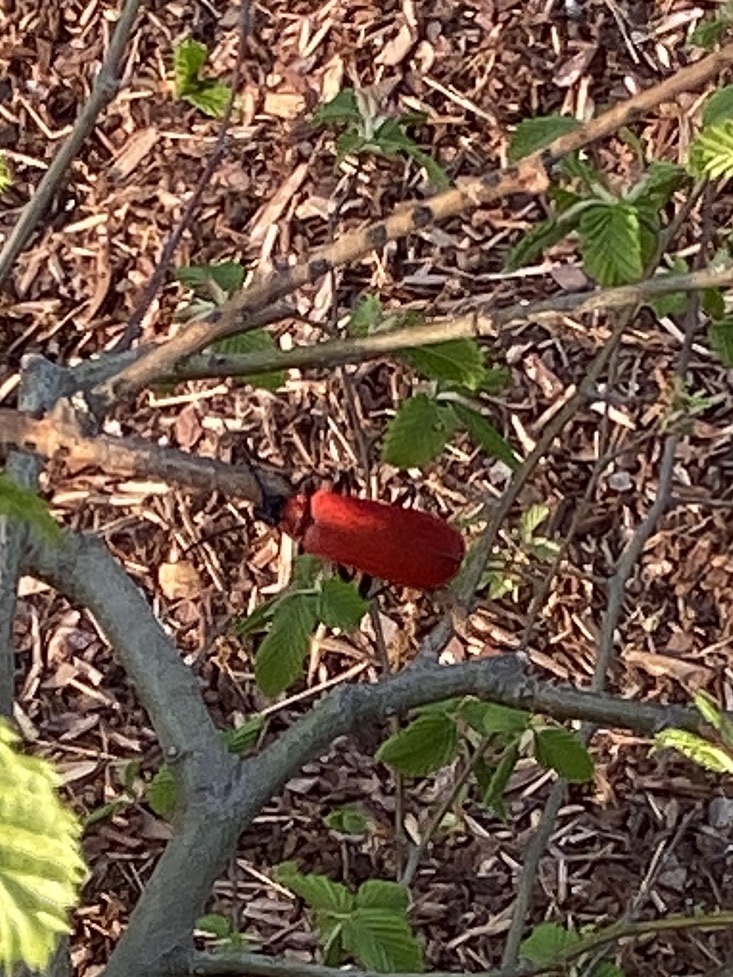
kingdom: Animalia
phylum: Arthropoda
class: Insecta
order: Coleoptera
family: Pyrochroidae
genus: Pyrochroa
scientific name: Pyrochroa coccinea
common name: Black-headed cardinal beetle
